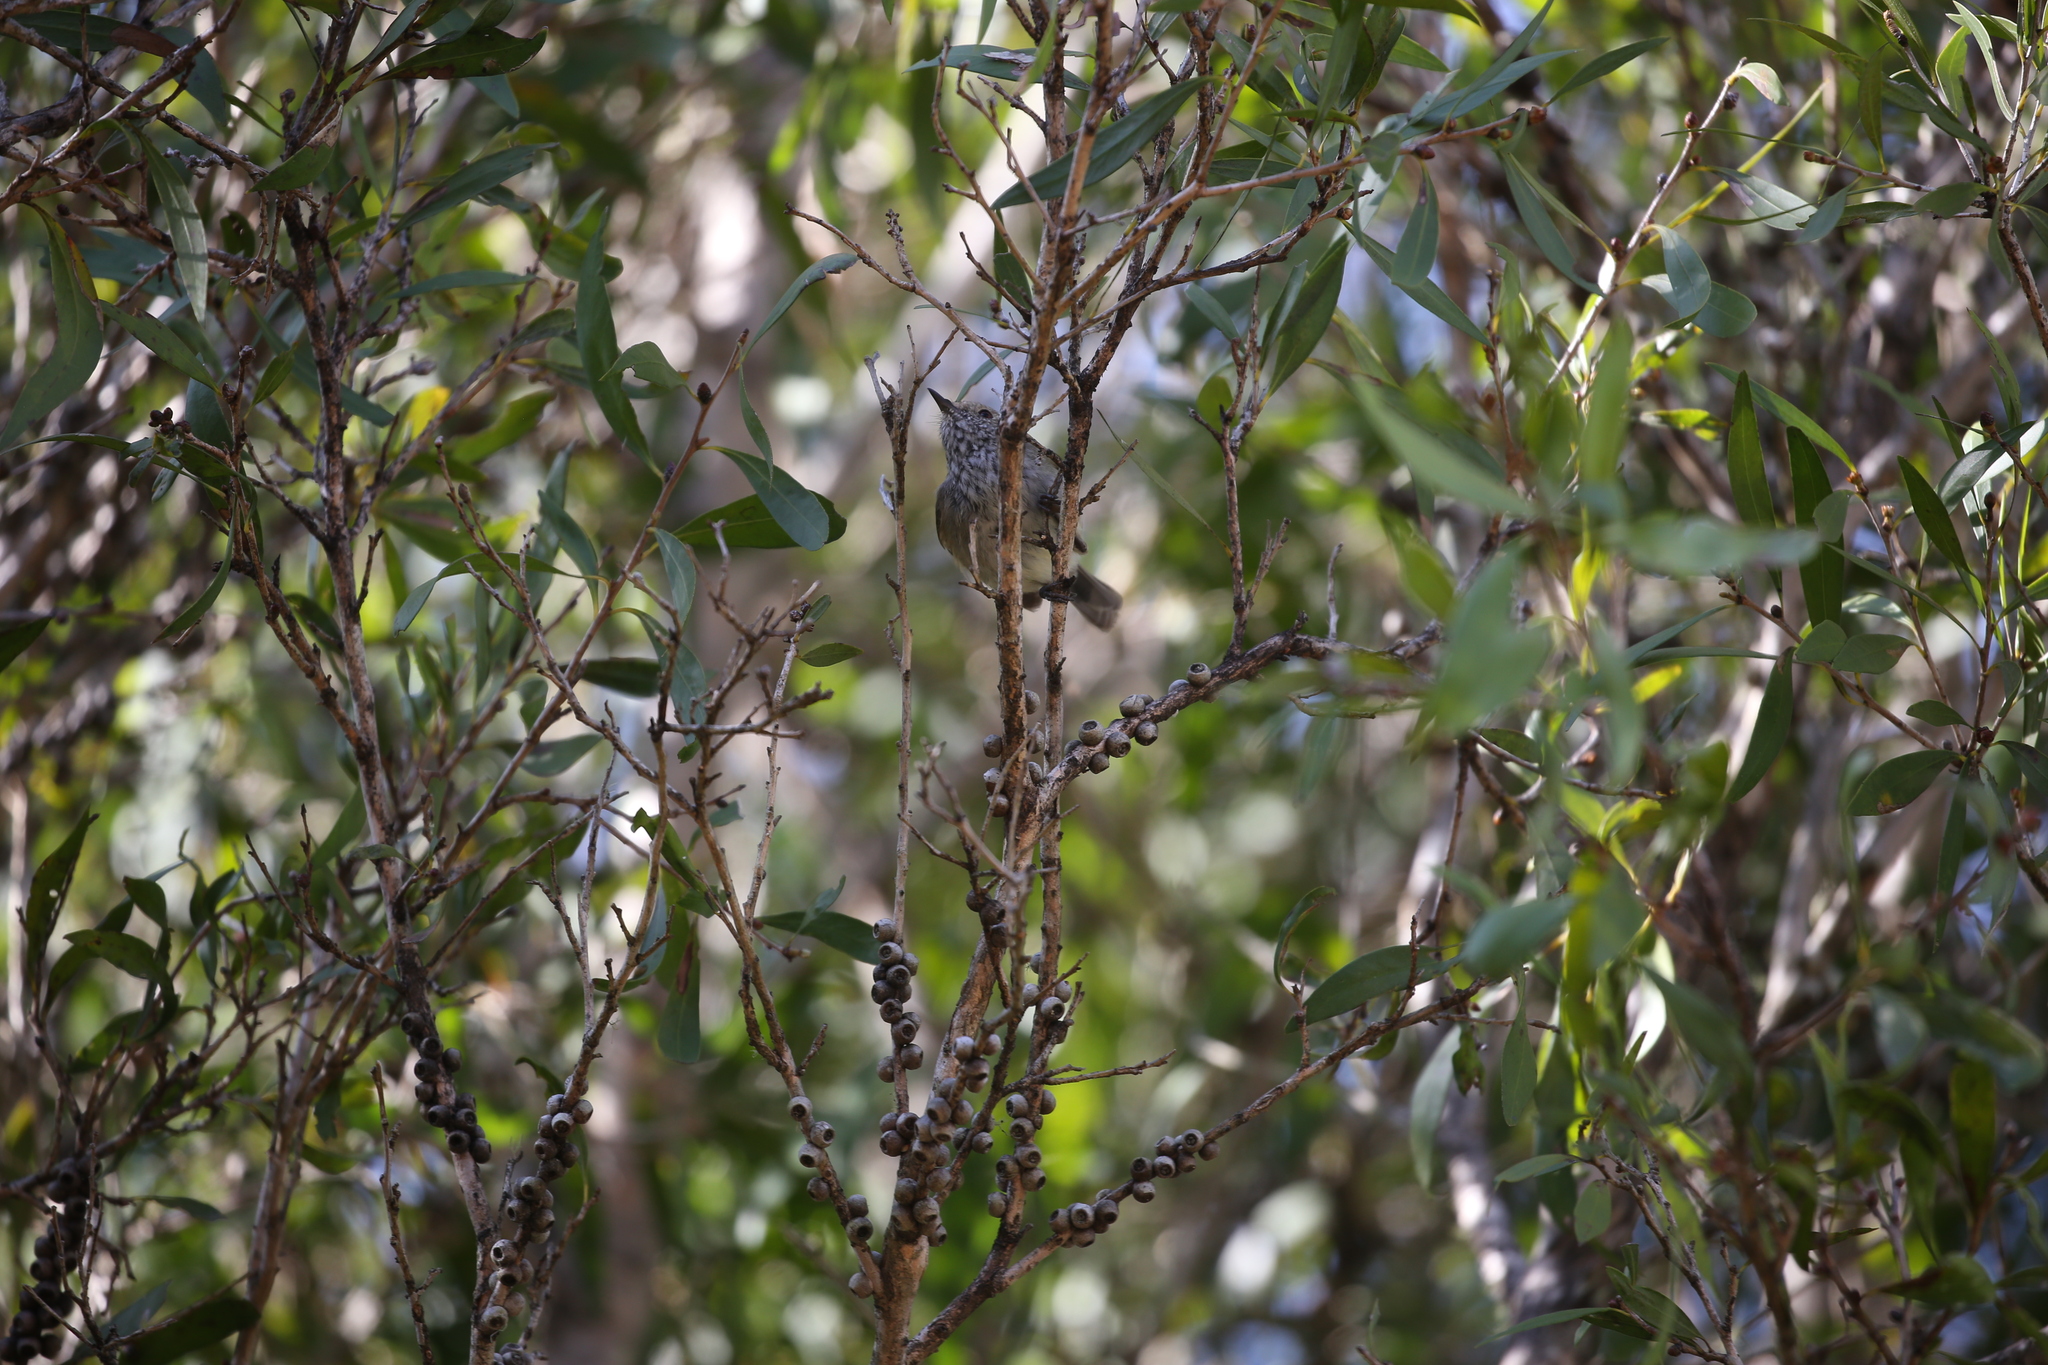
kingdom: Animalia
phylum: Chordata
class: Aves
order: Passeriformes
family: Acanthizidae
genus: Acanthiza
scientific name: Acanthiza pusilla
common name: Brown thornbill
